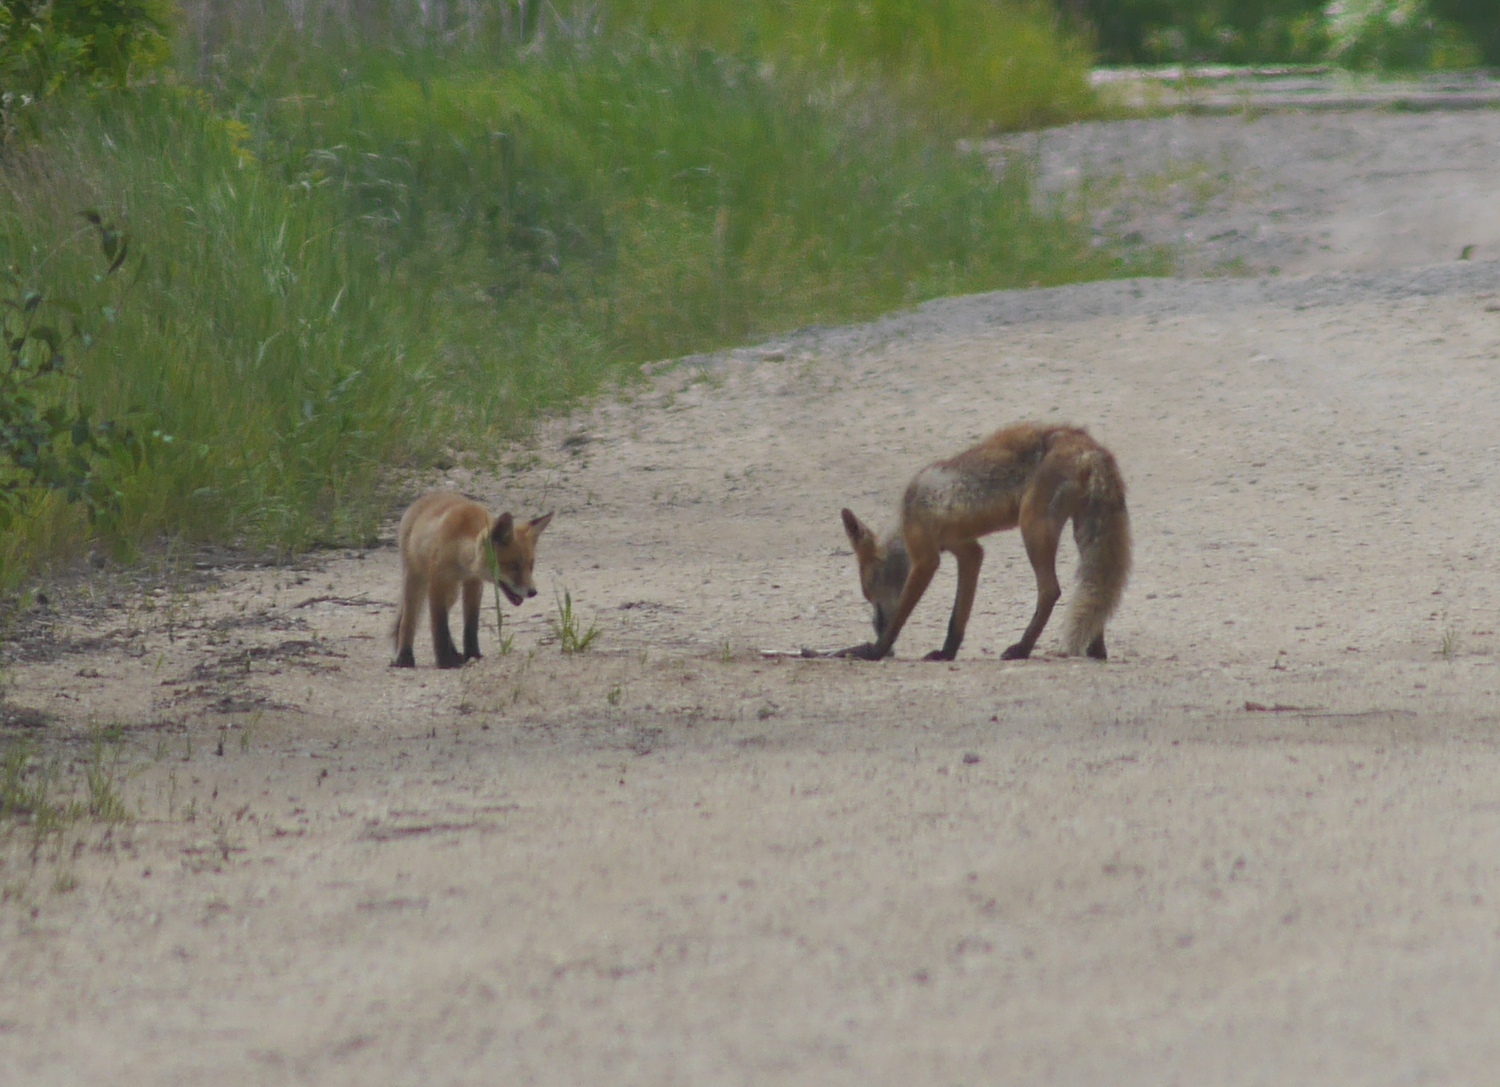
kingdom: Animalia
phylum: Chordata
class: Mammalia
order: Carnivora
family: Canidae
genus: Vulpes
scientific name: Vulpes vulpes
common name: Red fox
